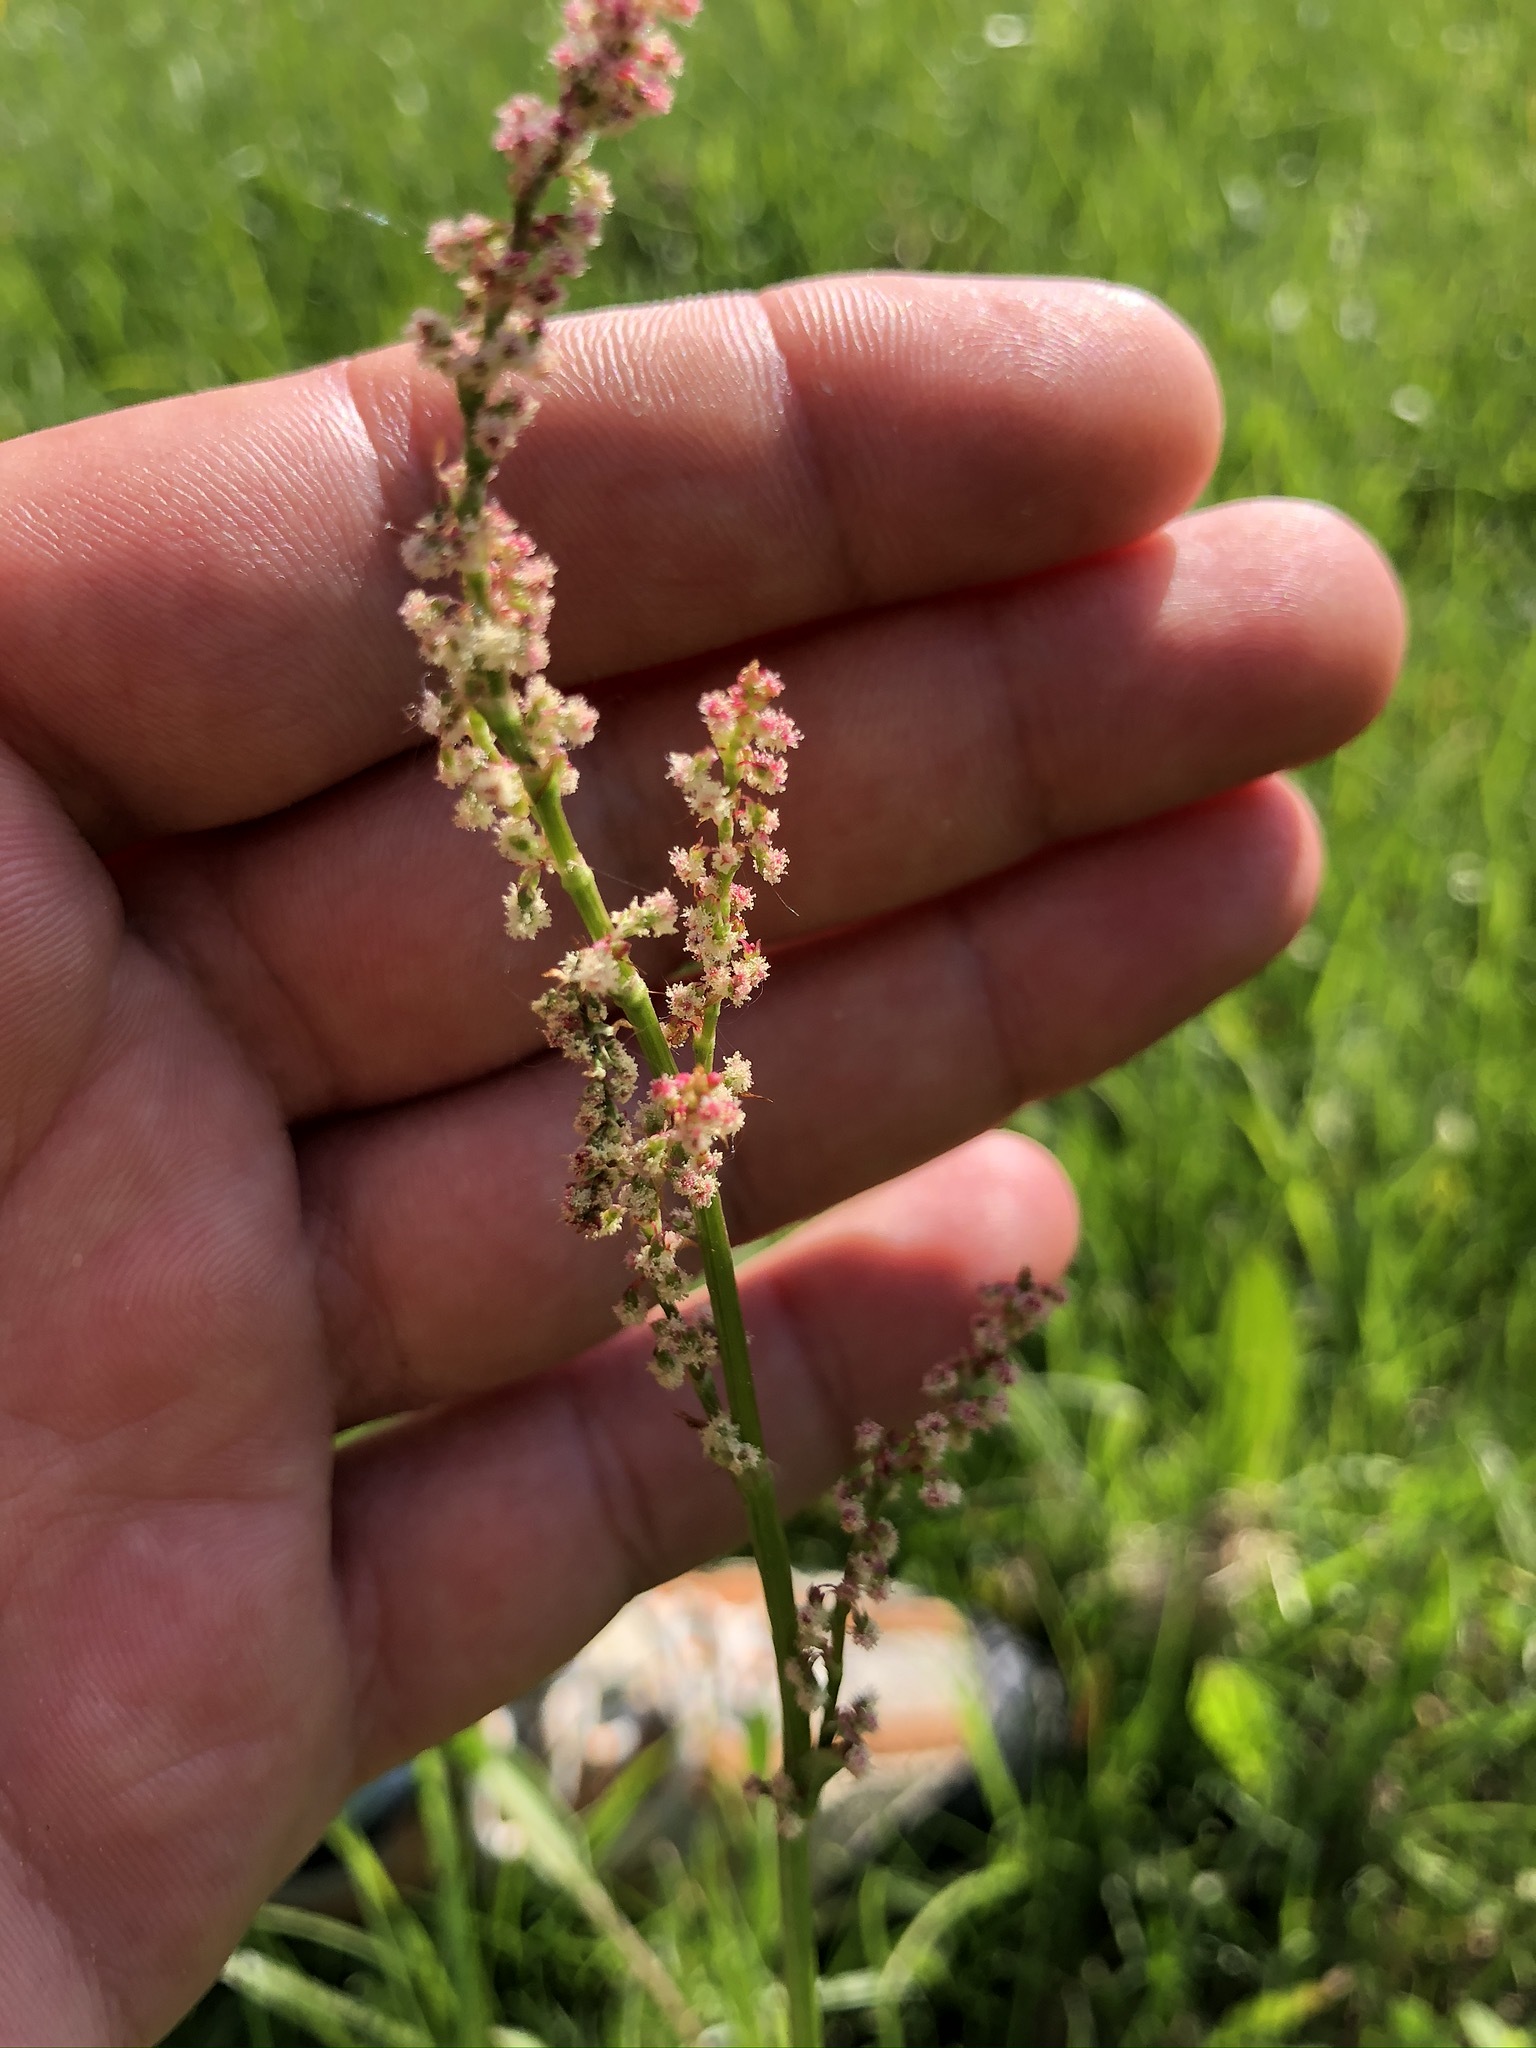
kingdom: Plantae
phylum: Tracheophyta
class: Magnoliopsida
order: Caryophyllales
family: Polygonaceae
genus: Rumex
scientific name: Rumex acetosa
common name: Garden sorrel
